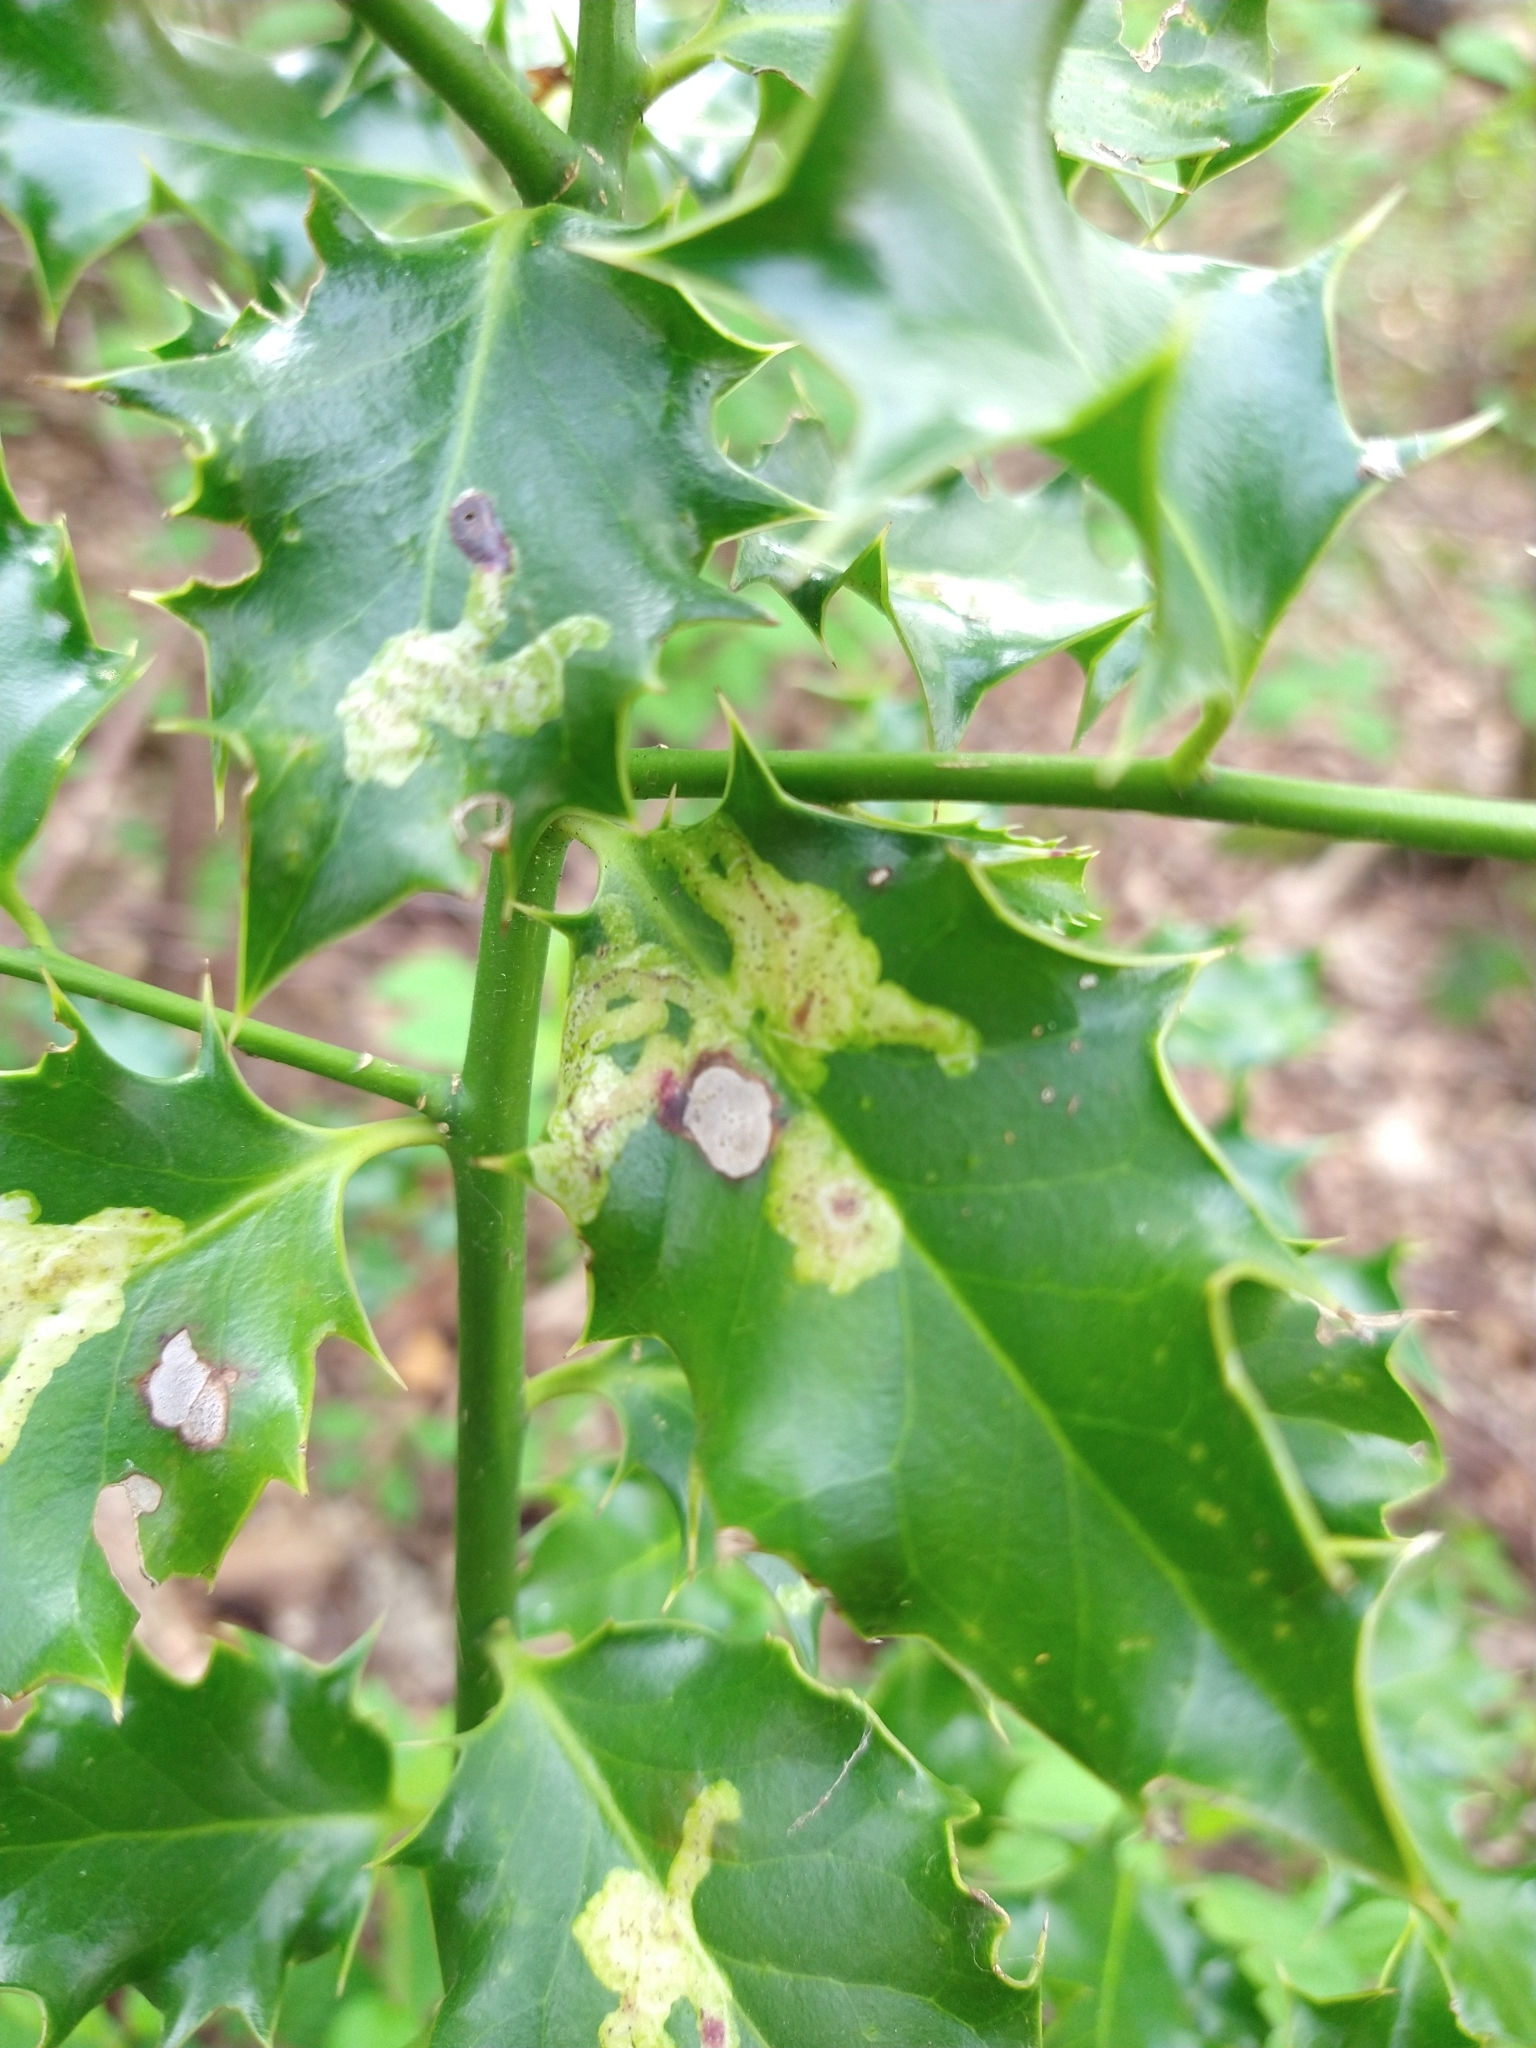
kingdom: Animalia
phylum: Arthropoda
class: Insecta
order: Diptera
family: Agromyzidae
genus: Phytomyza
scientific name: Phytomyza ilicis
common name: Holly leafminer
